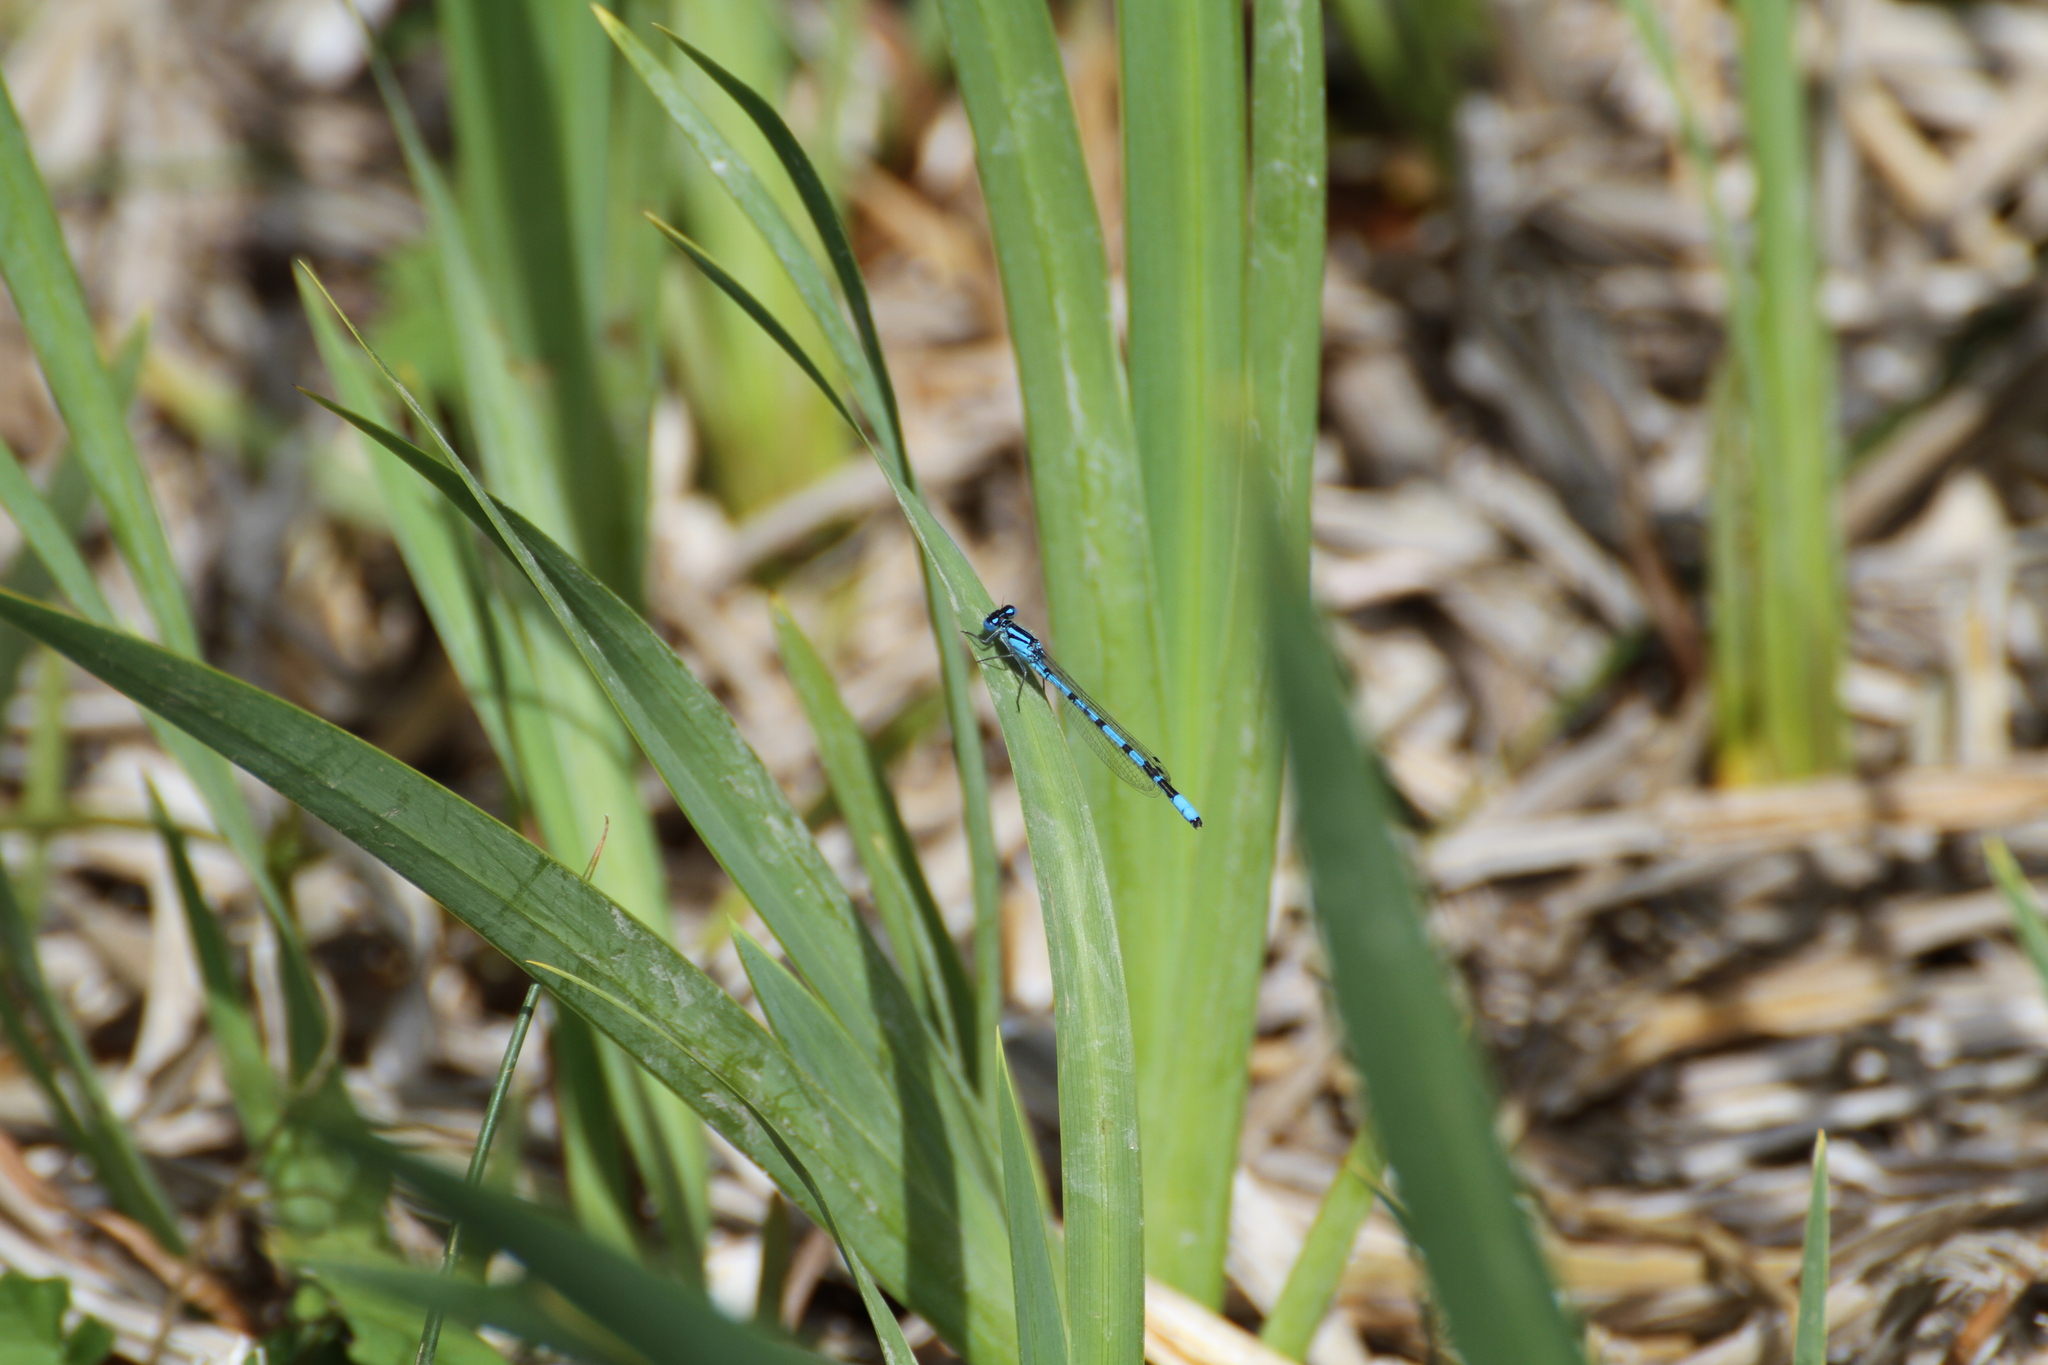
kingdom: Animalia
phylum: Arthropoda
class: Insecta
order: Odonata
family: Coenagrionidae
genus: Enallagma
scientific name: Enallagma cyathigerum
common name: Common blue damselfly
